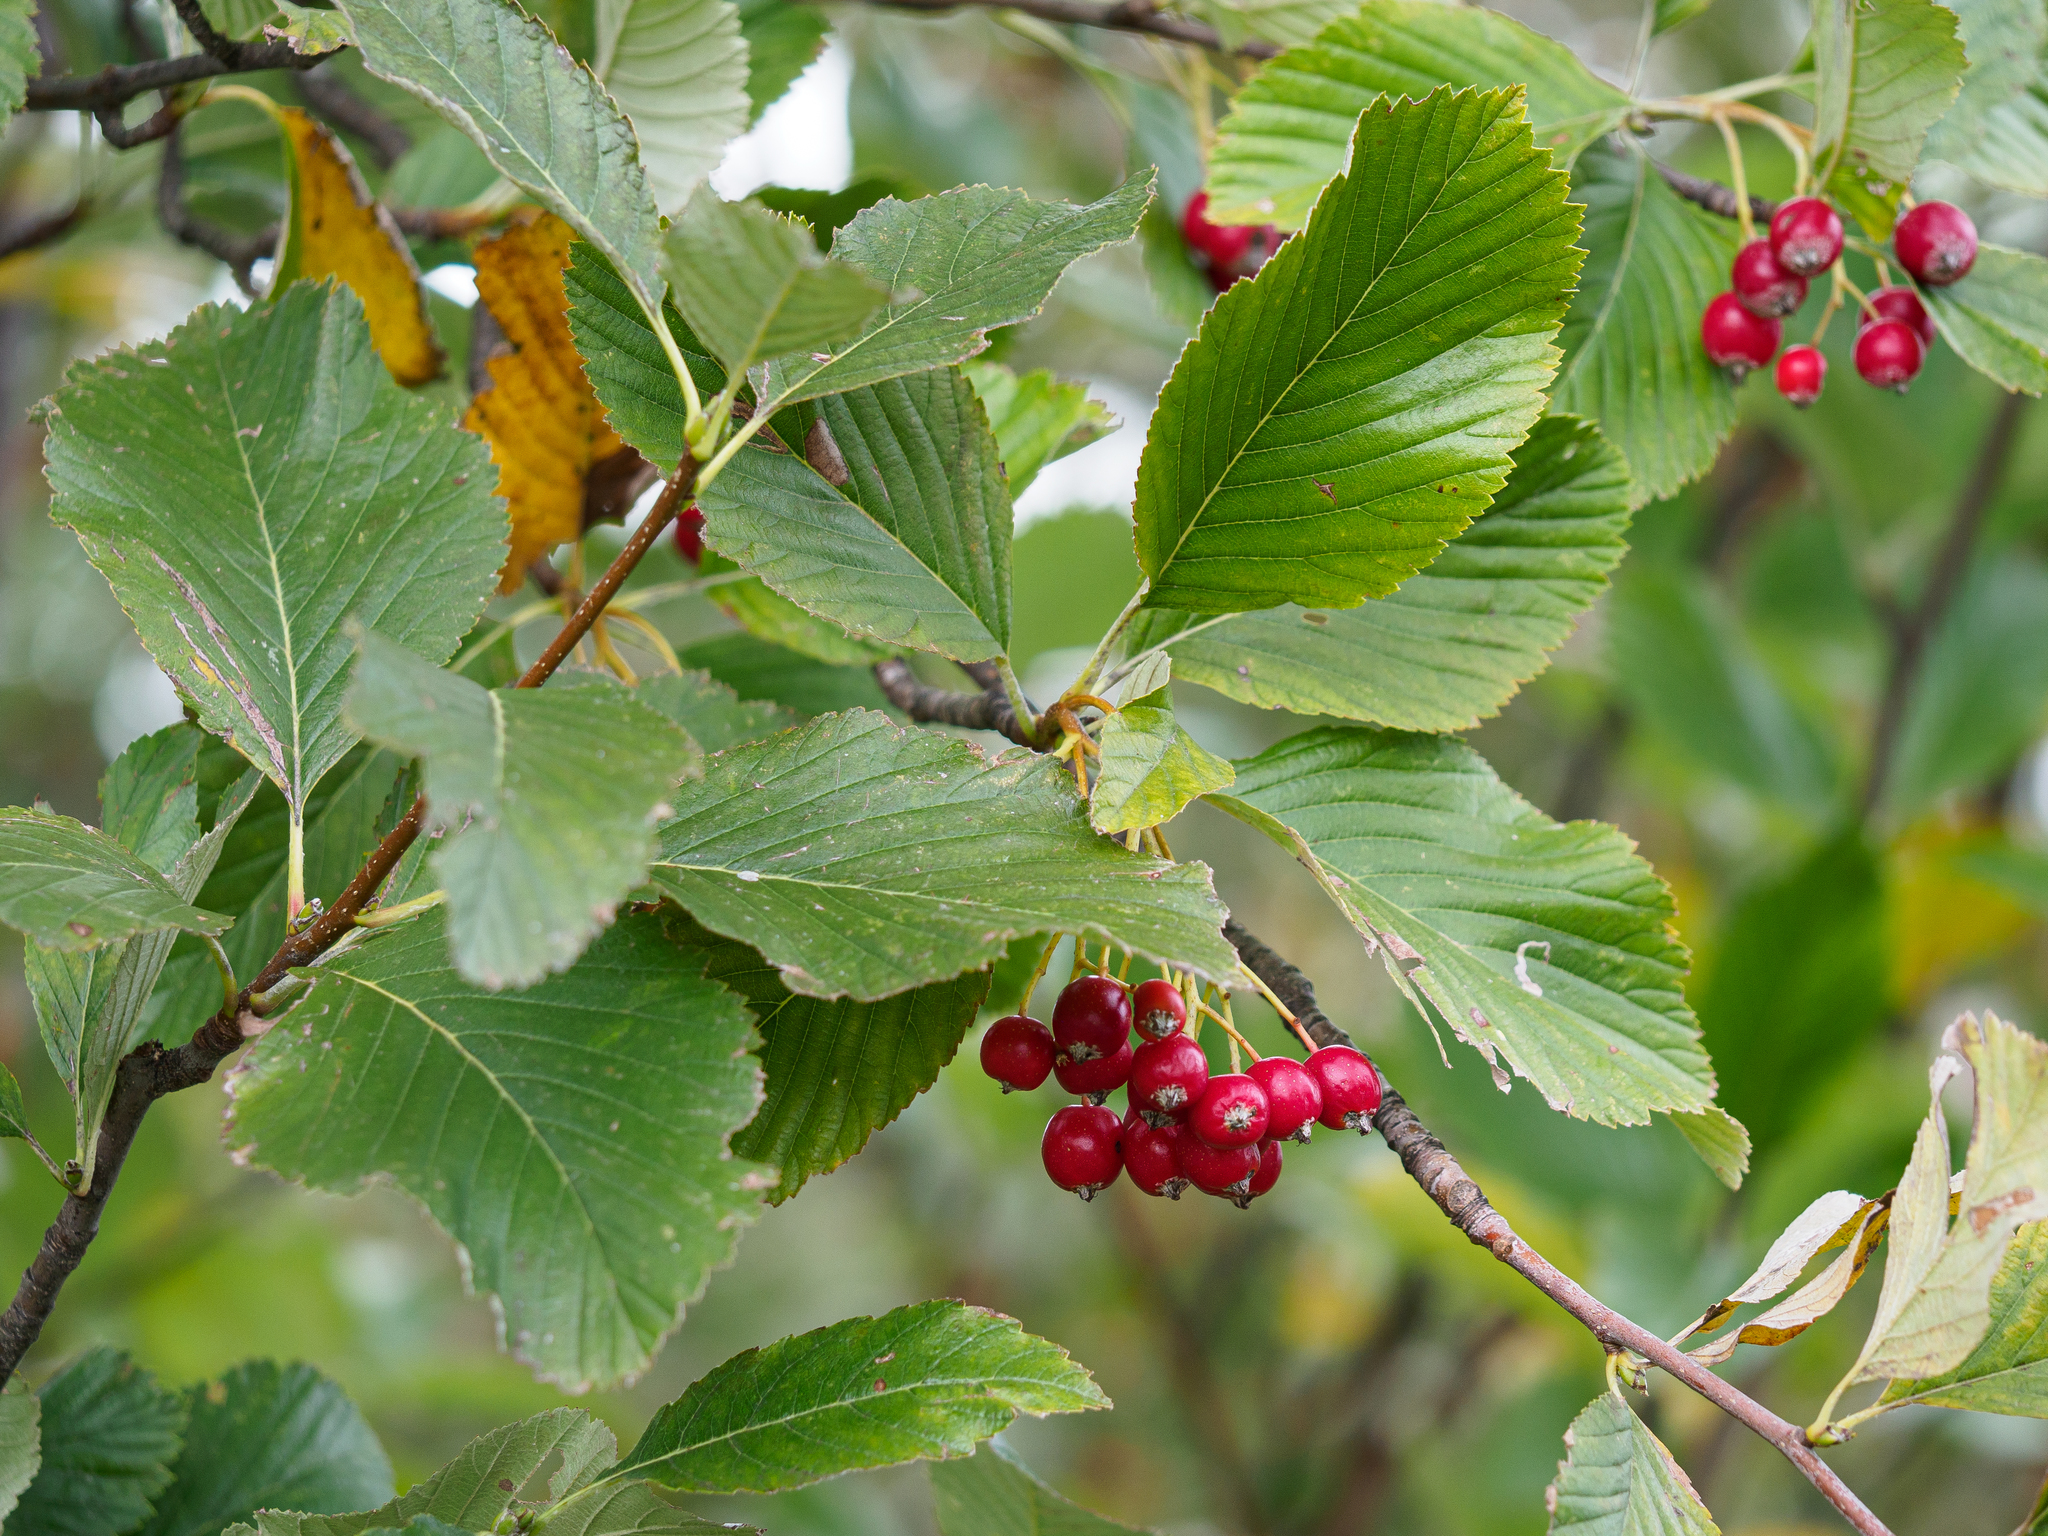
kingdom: Plantae
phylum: Tracheophyta
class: Magnoliopsida
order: Rosales
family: Rosaceae
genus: Aria
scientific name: Aria edulis
